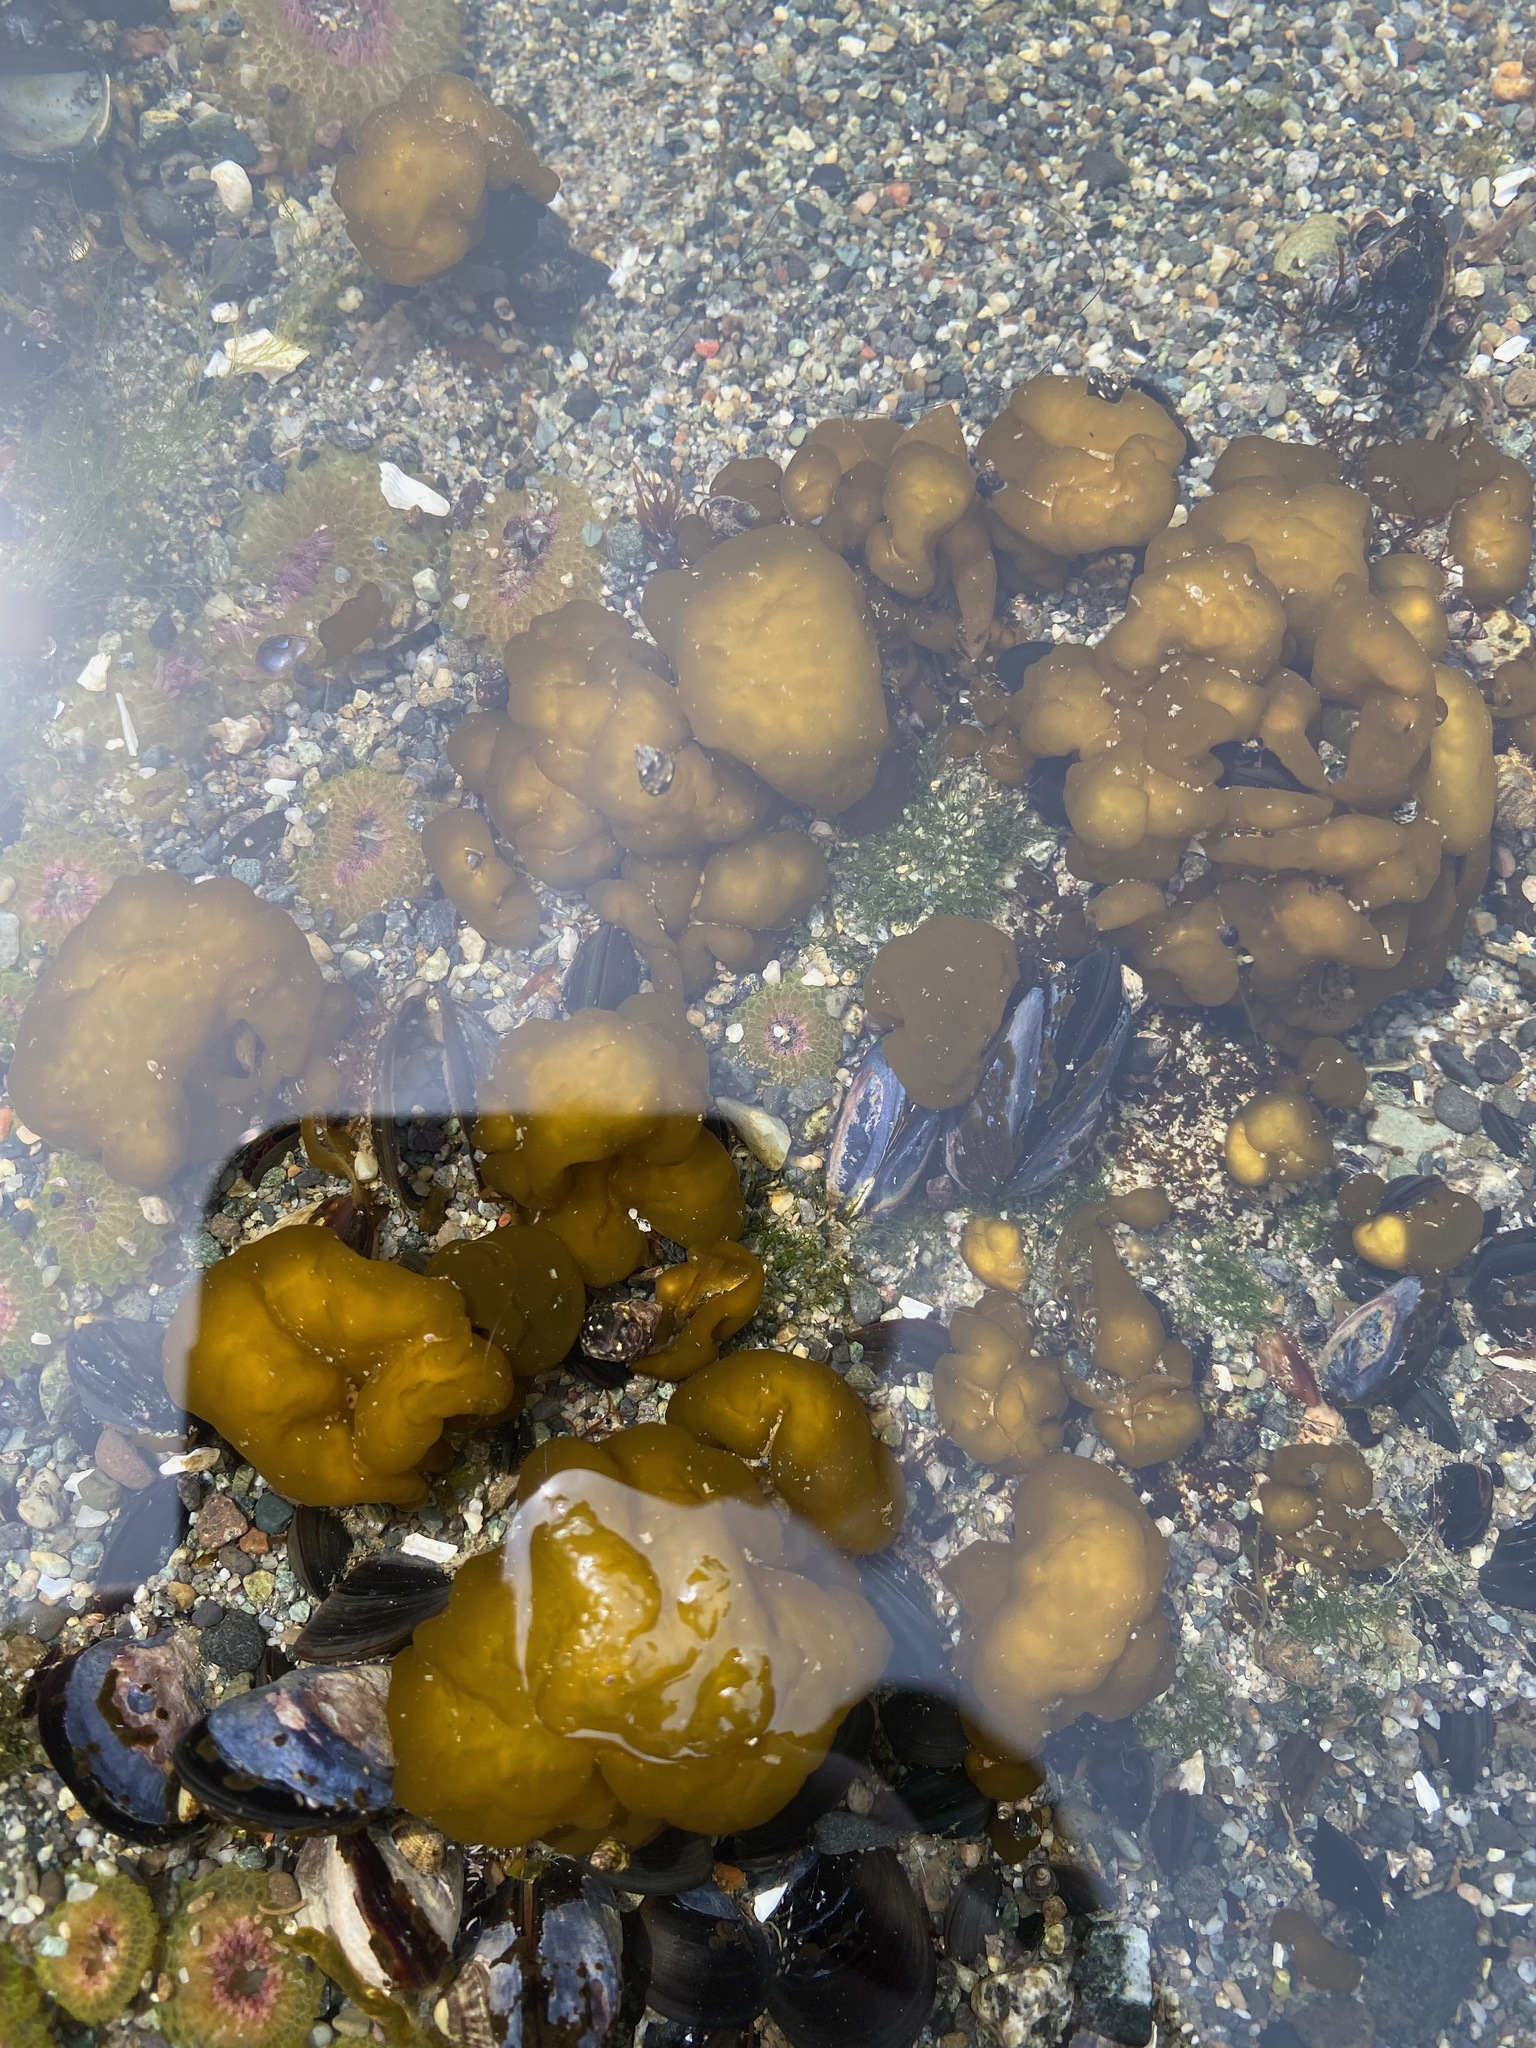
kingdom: Chromista
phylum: Ochrophyta
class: Phaeophyceae
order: Ectocarpales
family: Chordariaceae
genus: Leathesia
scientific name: Leathesia marina
